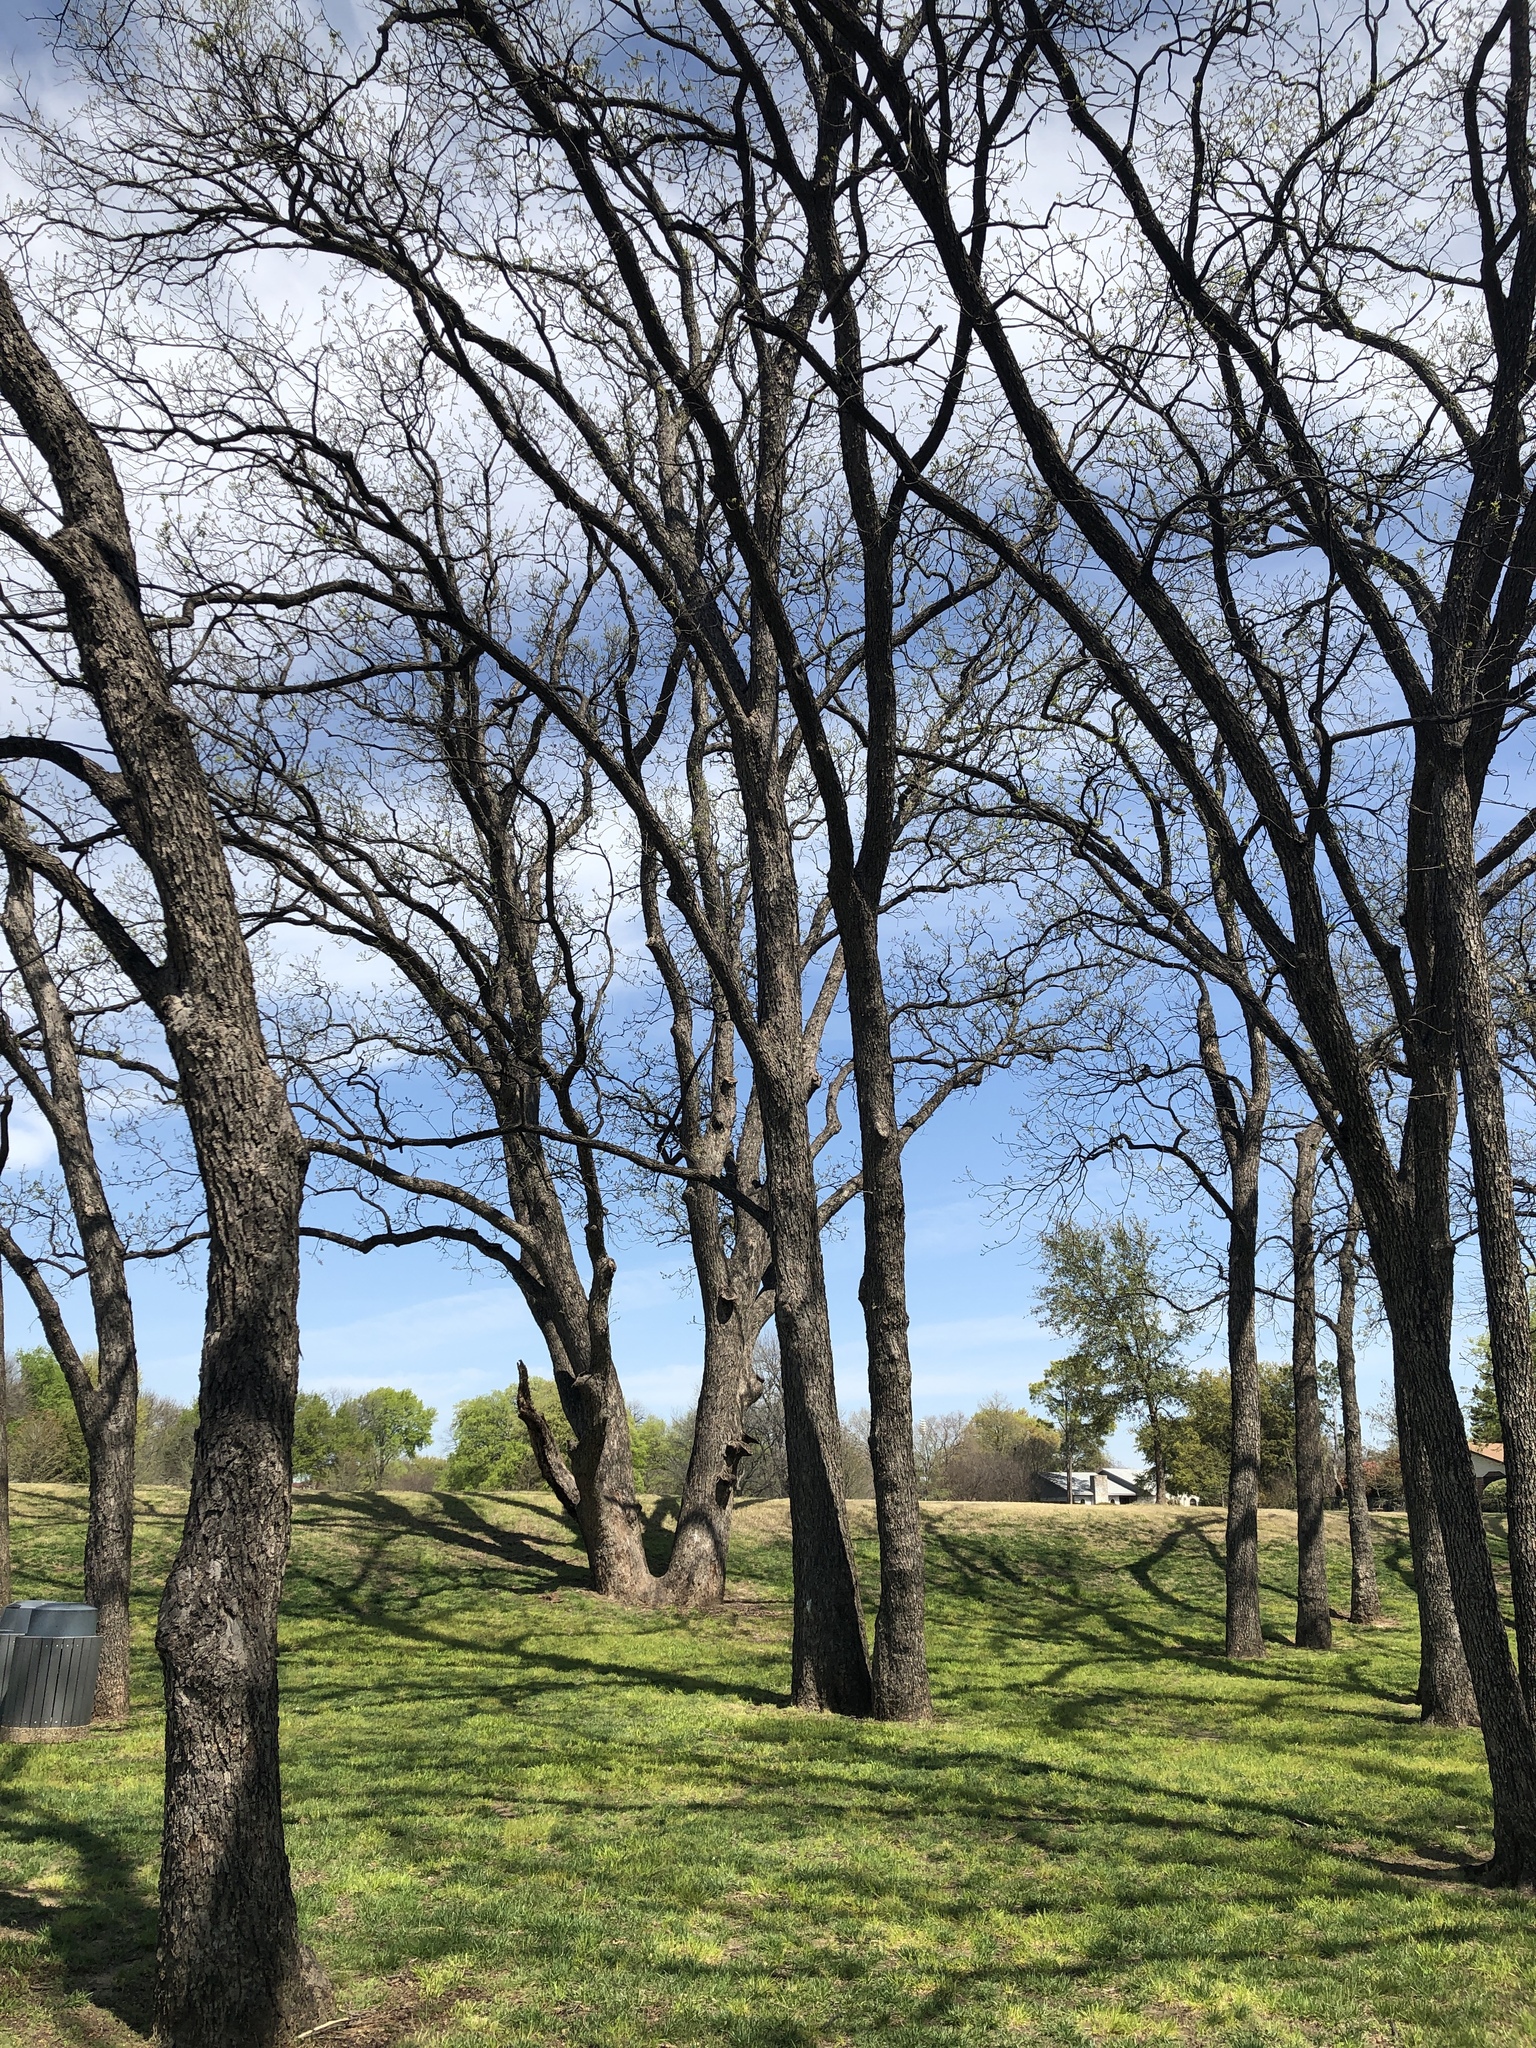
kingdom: Plantae
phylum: Tracheophyta
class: Magnoliopsida
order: Fagales
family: Juglandaceae
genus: Carya
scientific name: Carya illinoinensis
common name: Pecan
